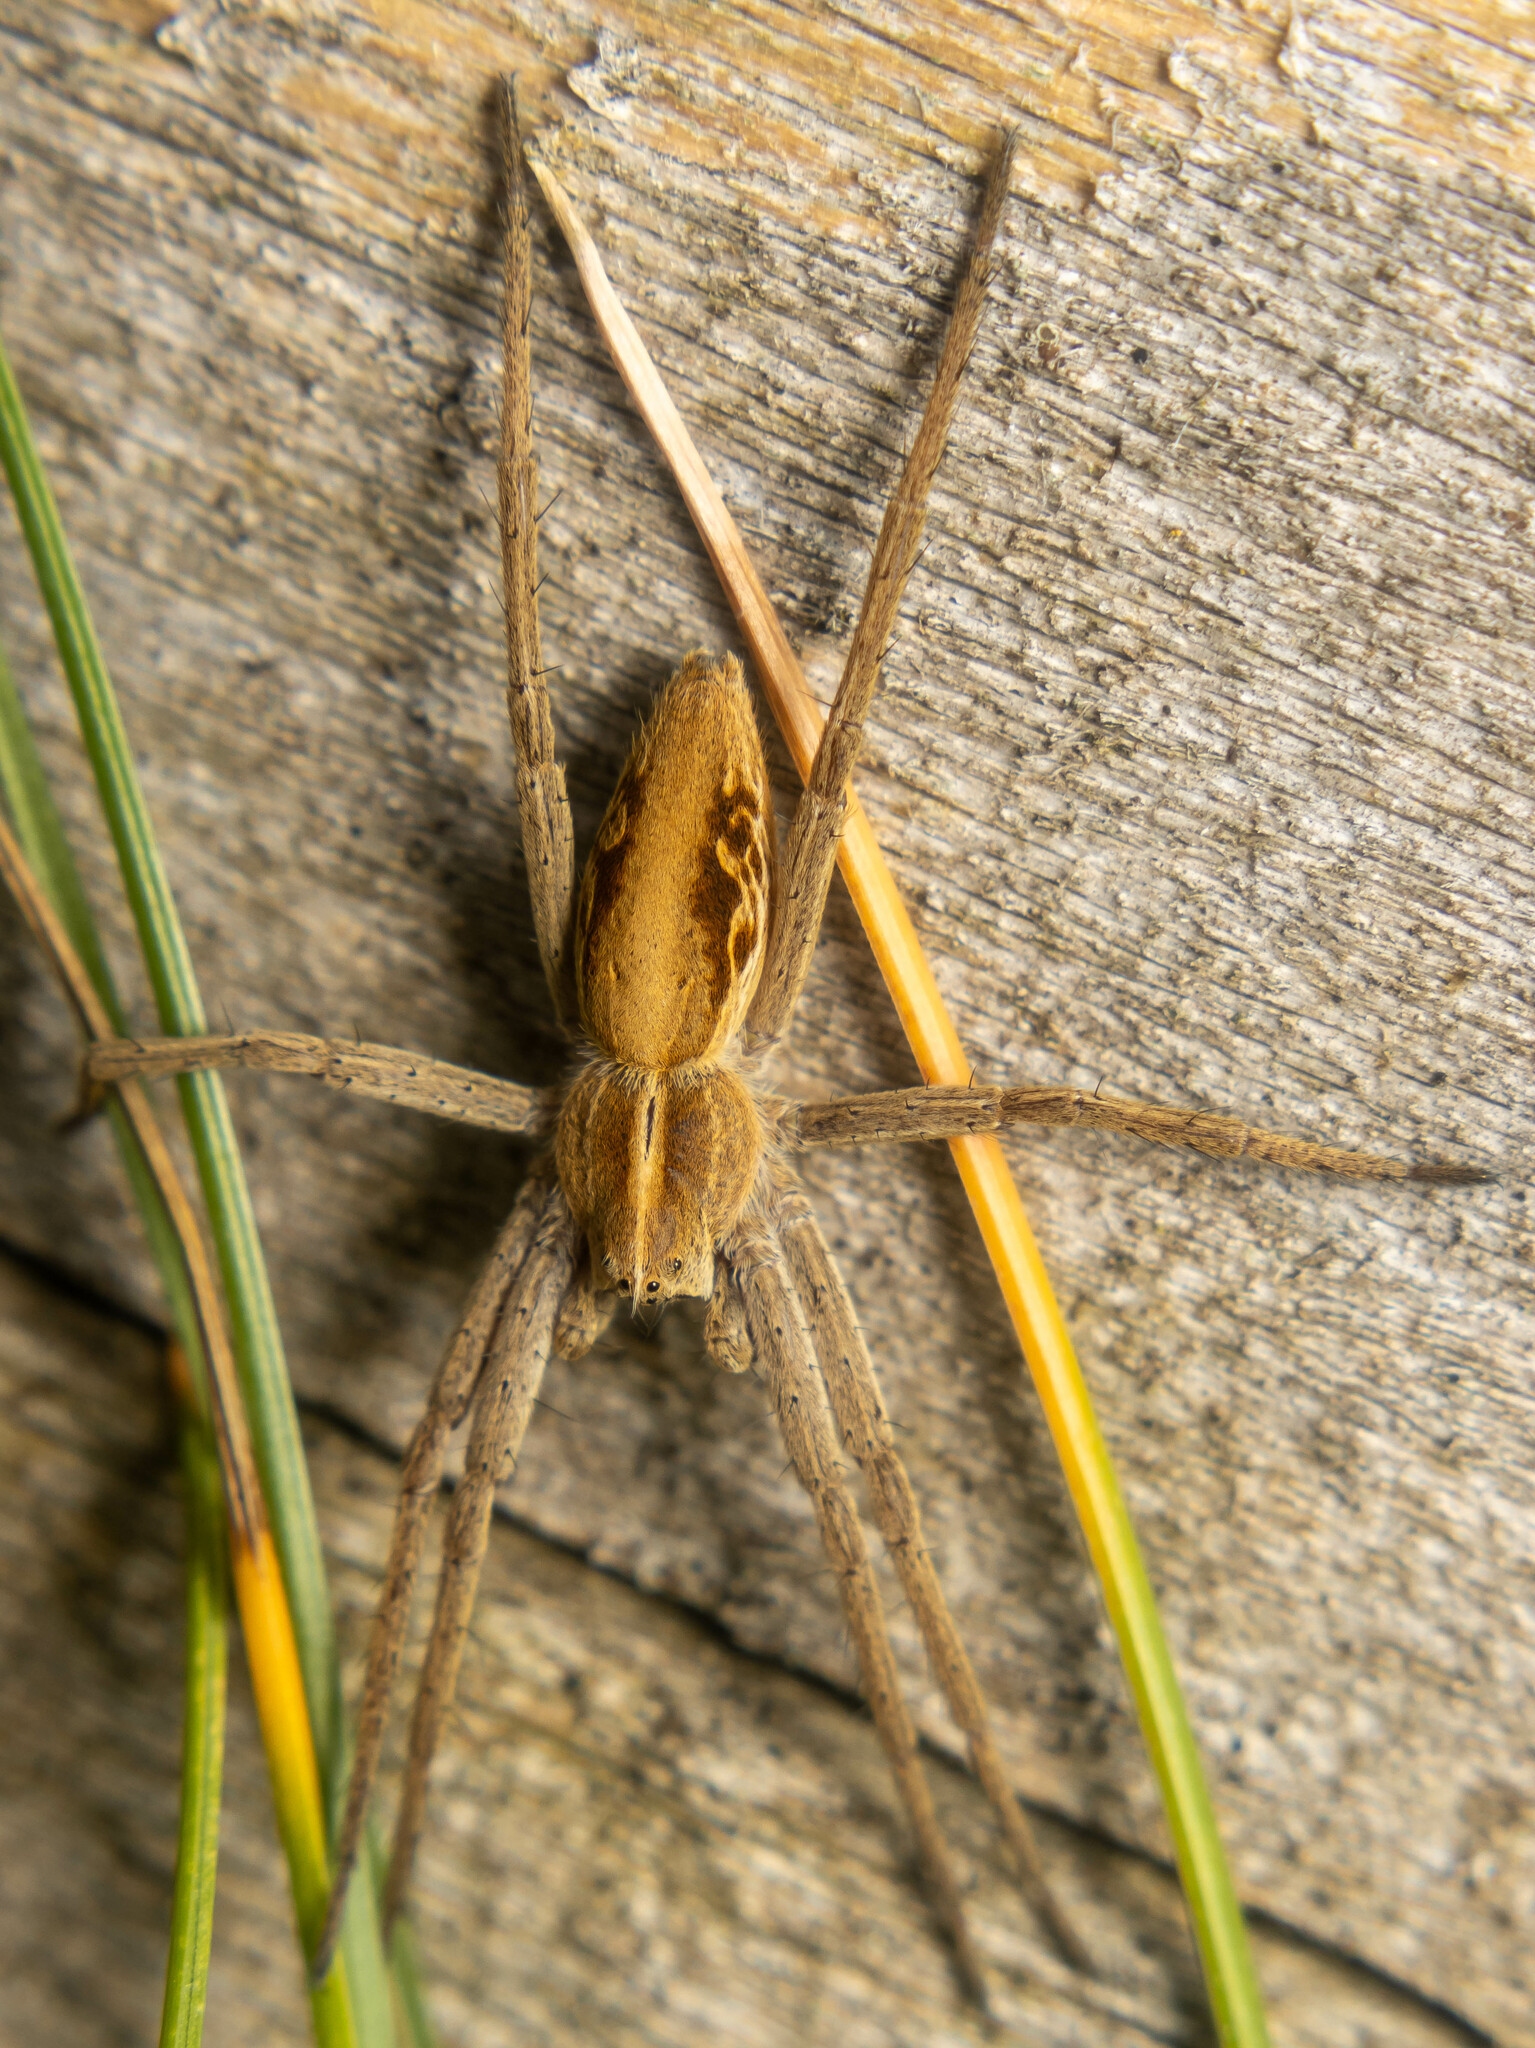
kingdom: Animalia
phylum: Arthropoda
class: Arachnida
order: Araneae
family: Pisauridae
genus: Pisaura
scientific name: Pisaura mirabilis
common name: Tent spider
